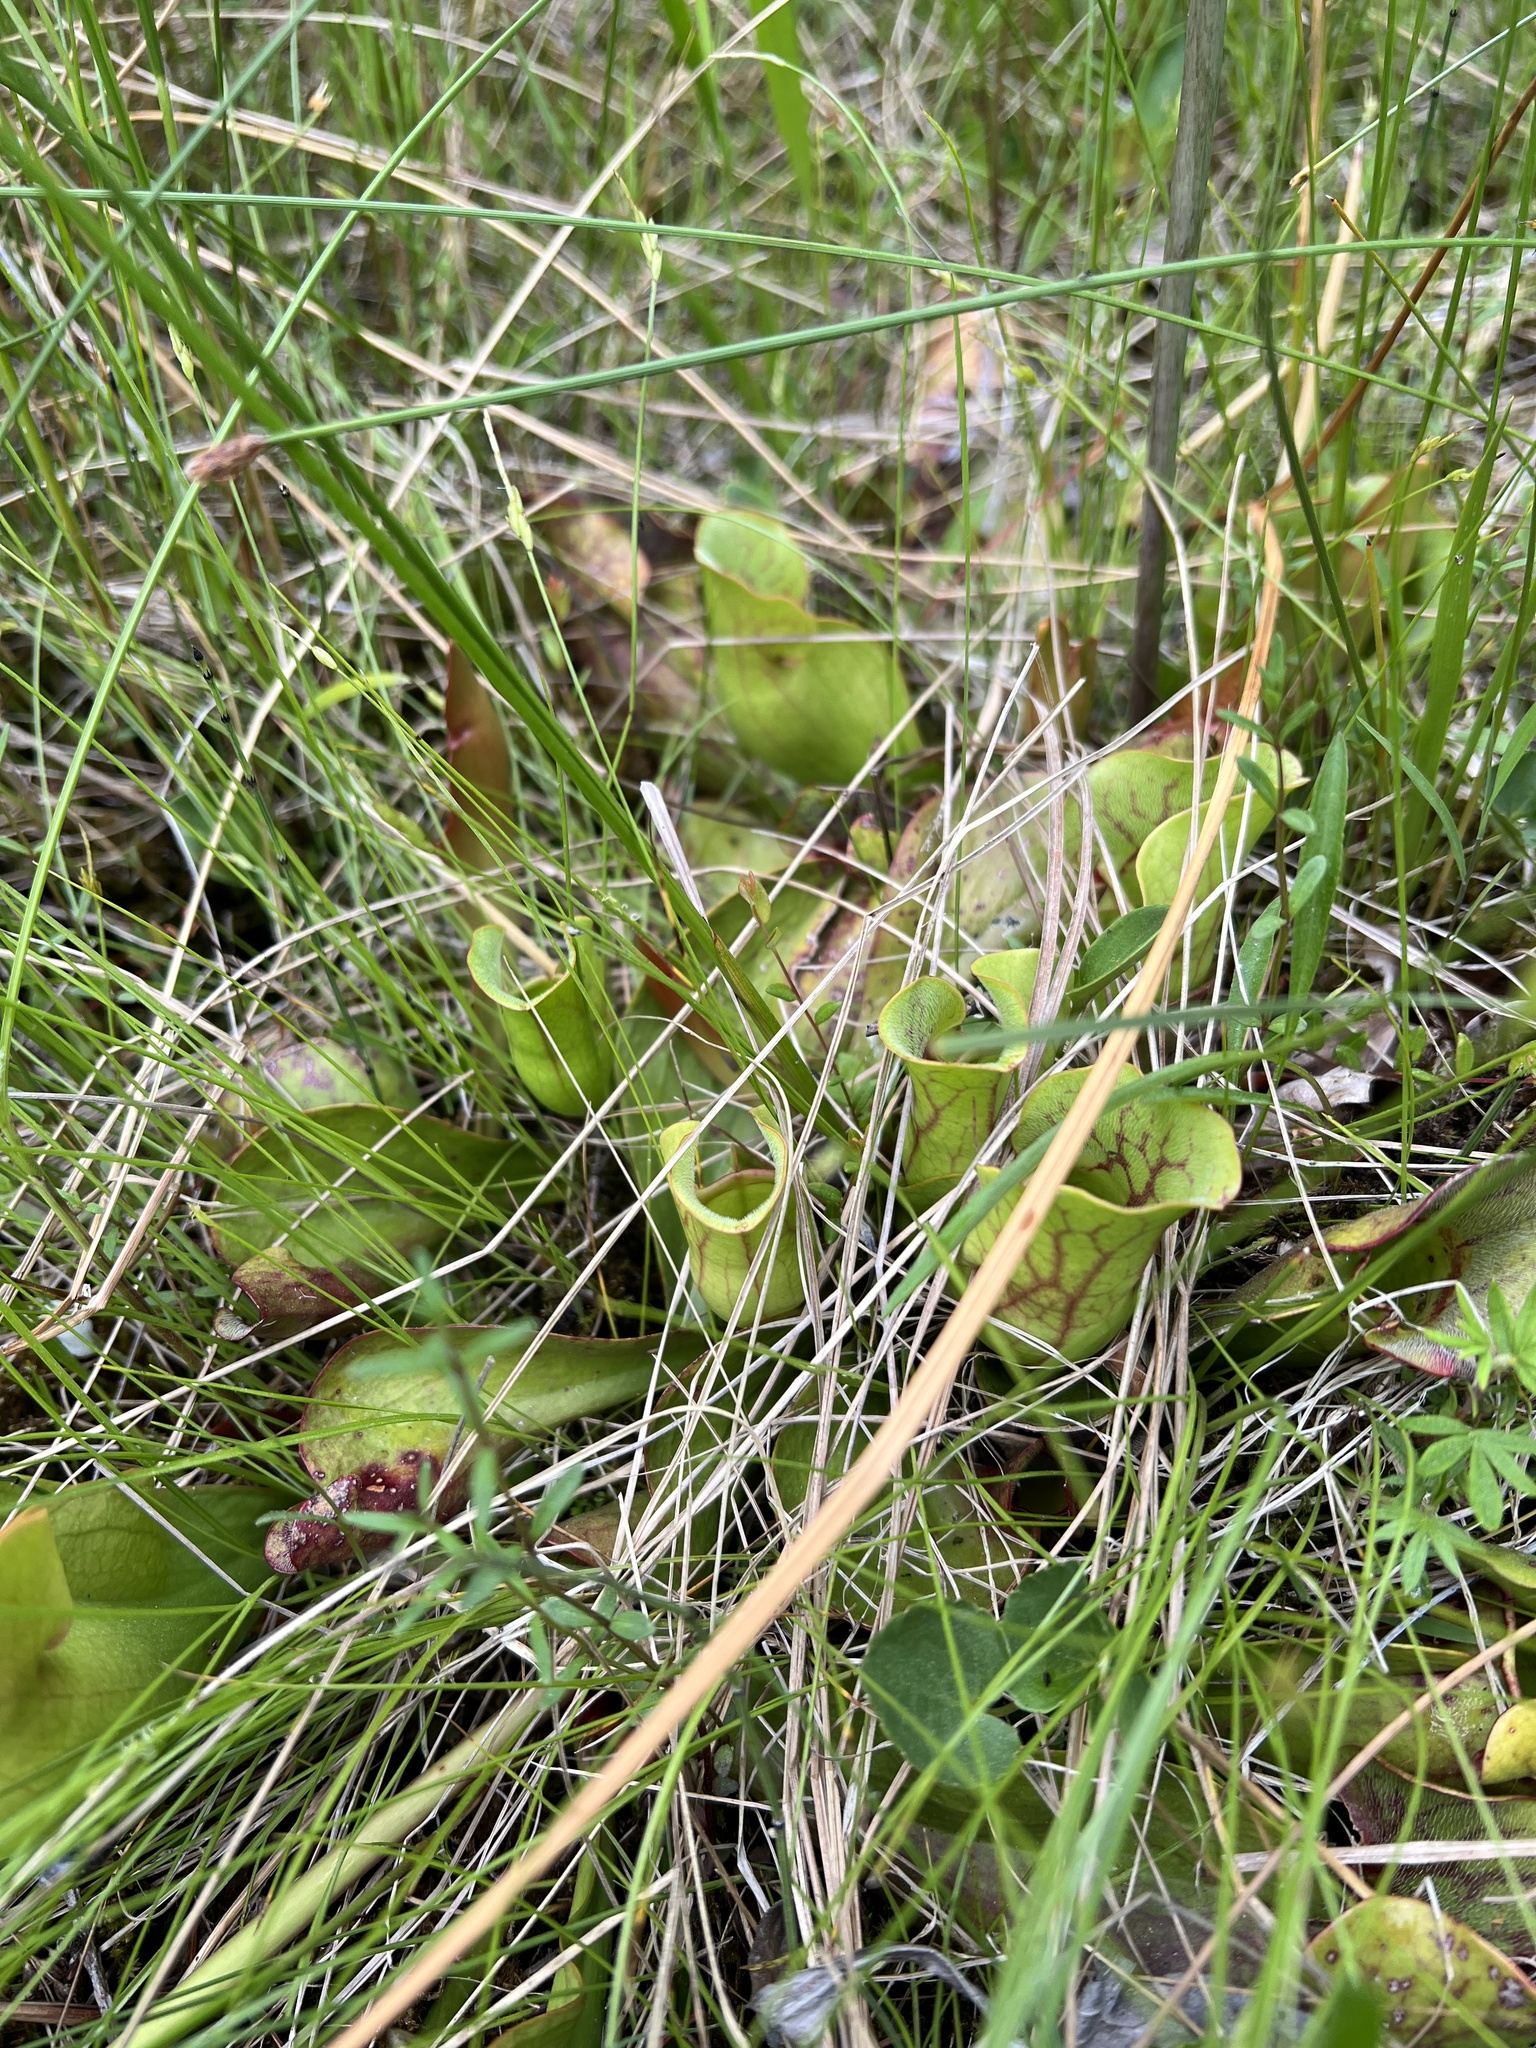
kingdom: Plantae
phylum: Tracheophyta
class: Magnoliopsida
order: Ericales
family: Sarraceniaceae
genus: Sarracenia
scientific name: Sarracenia purpurea
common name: Pitcherplant
